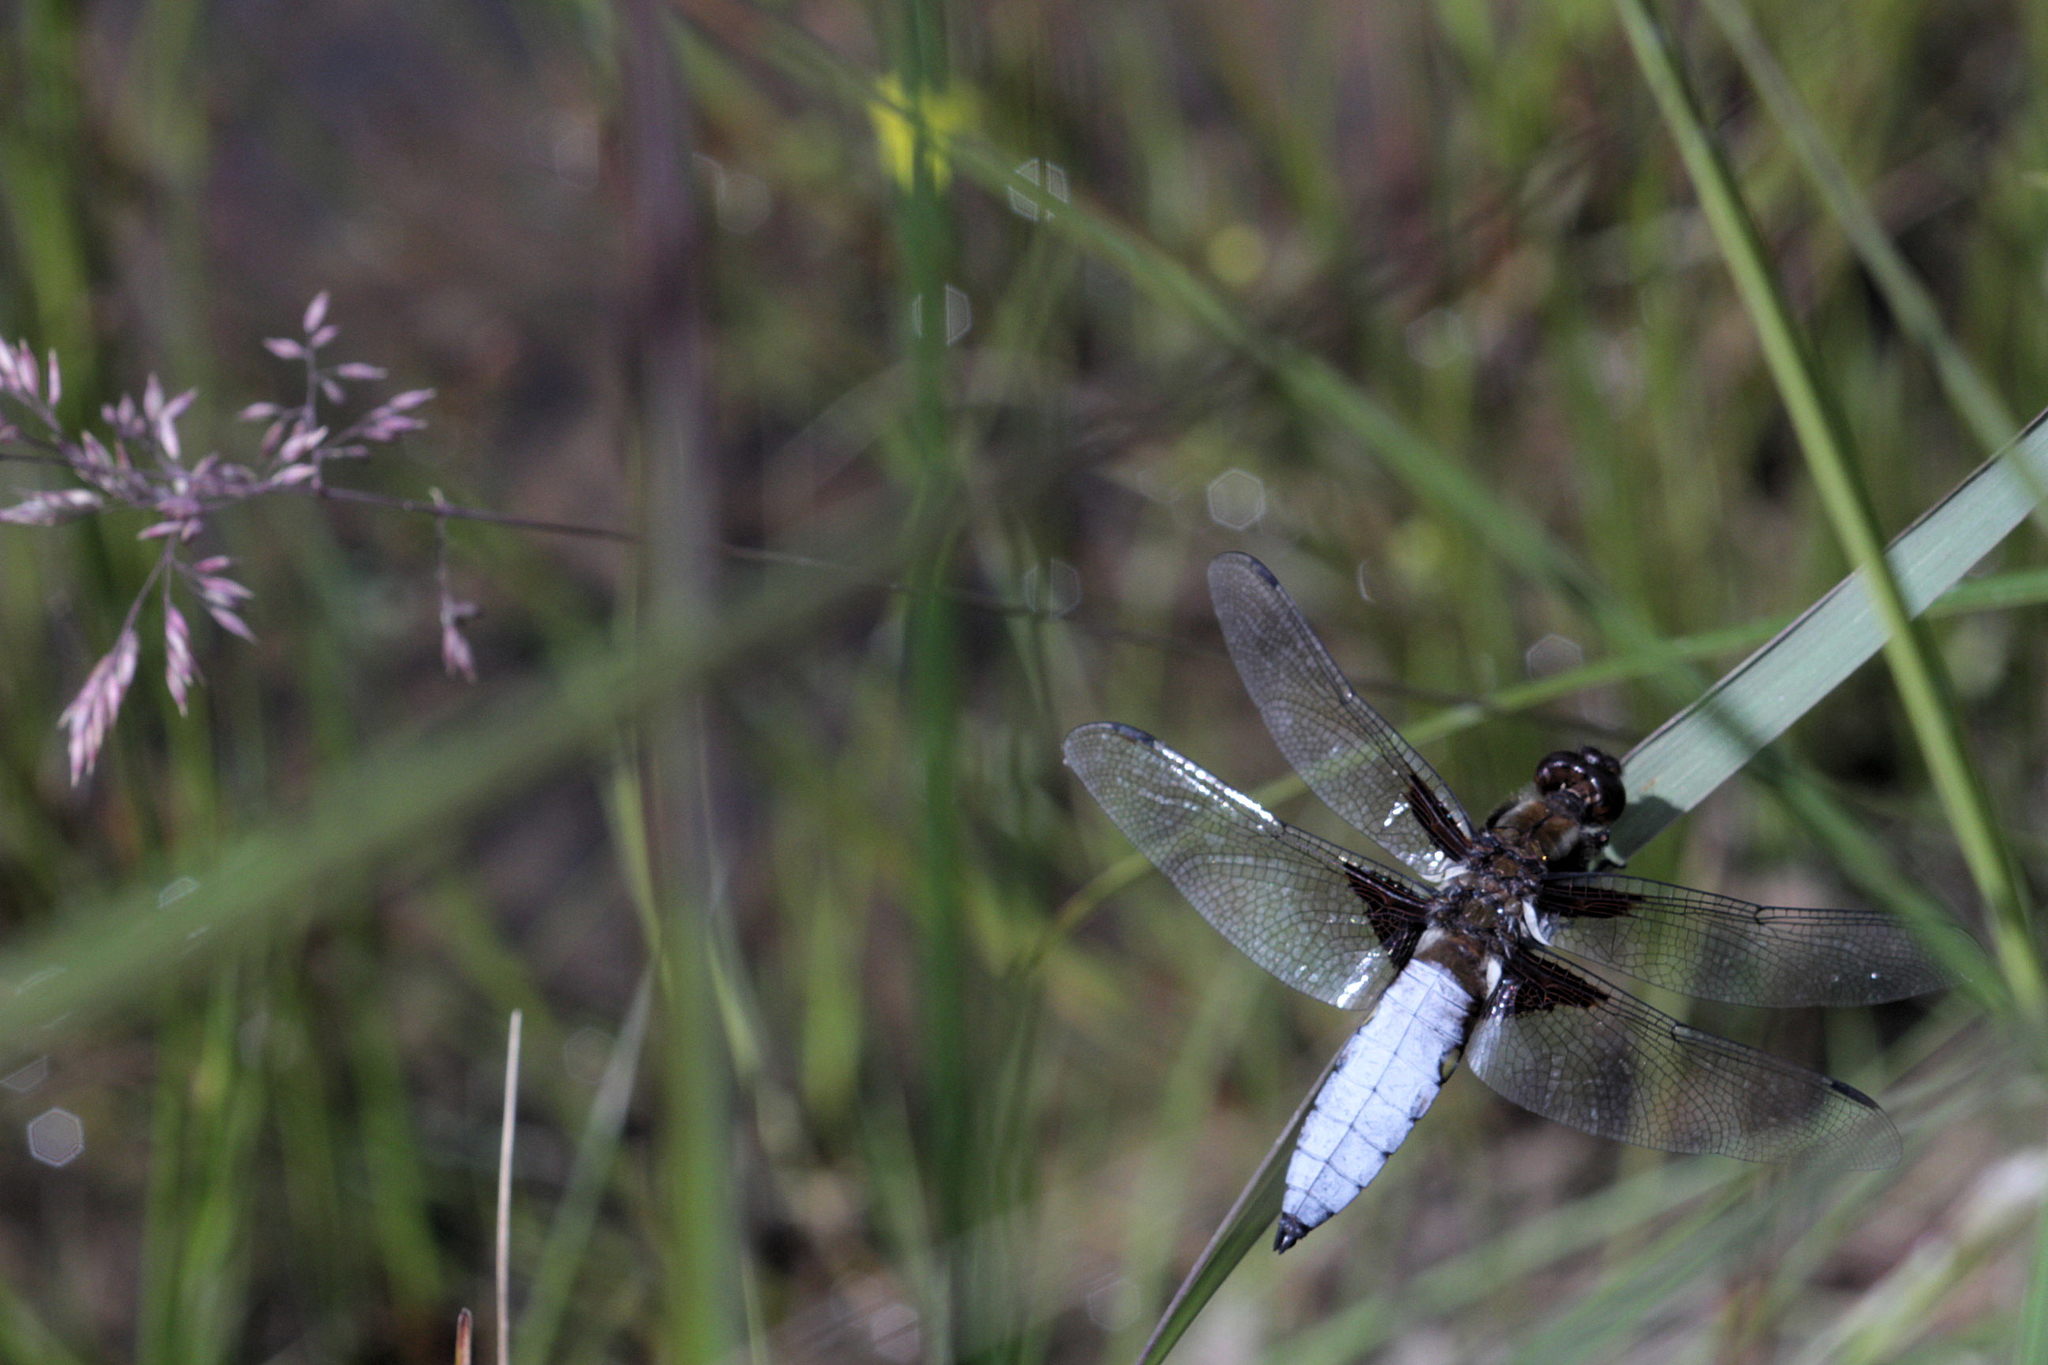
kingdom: Animalia
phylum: Arthropoda
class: Insecta
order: Odonata
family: Libellulidae
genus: Libellula
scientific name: Libellula depressa
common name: Broad-bodied chaser
